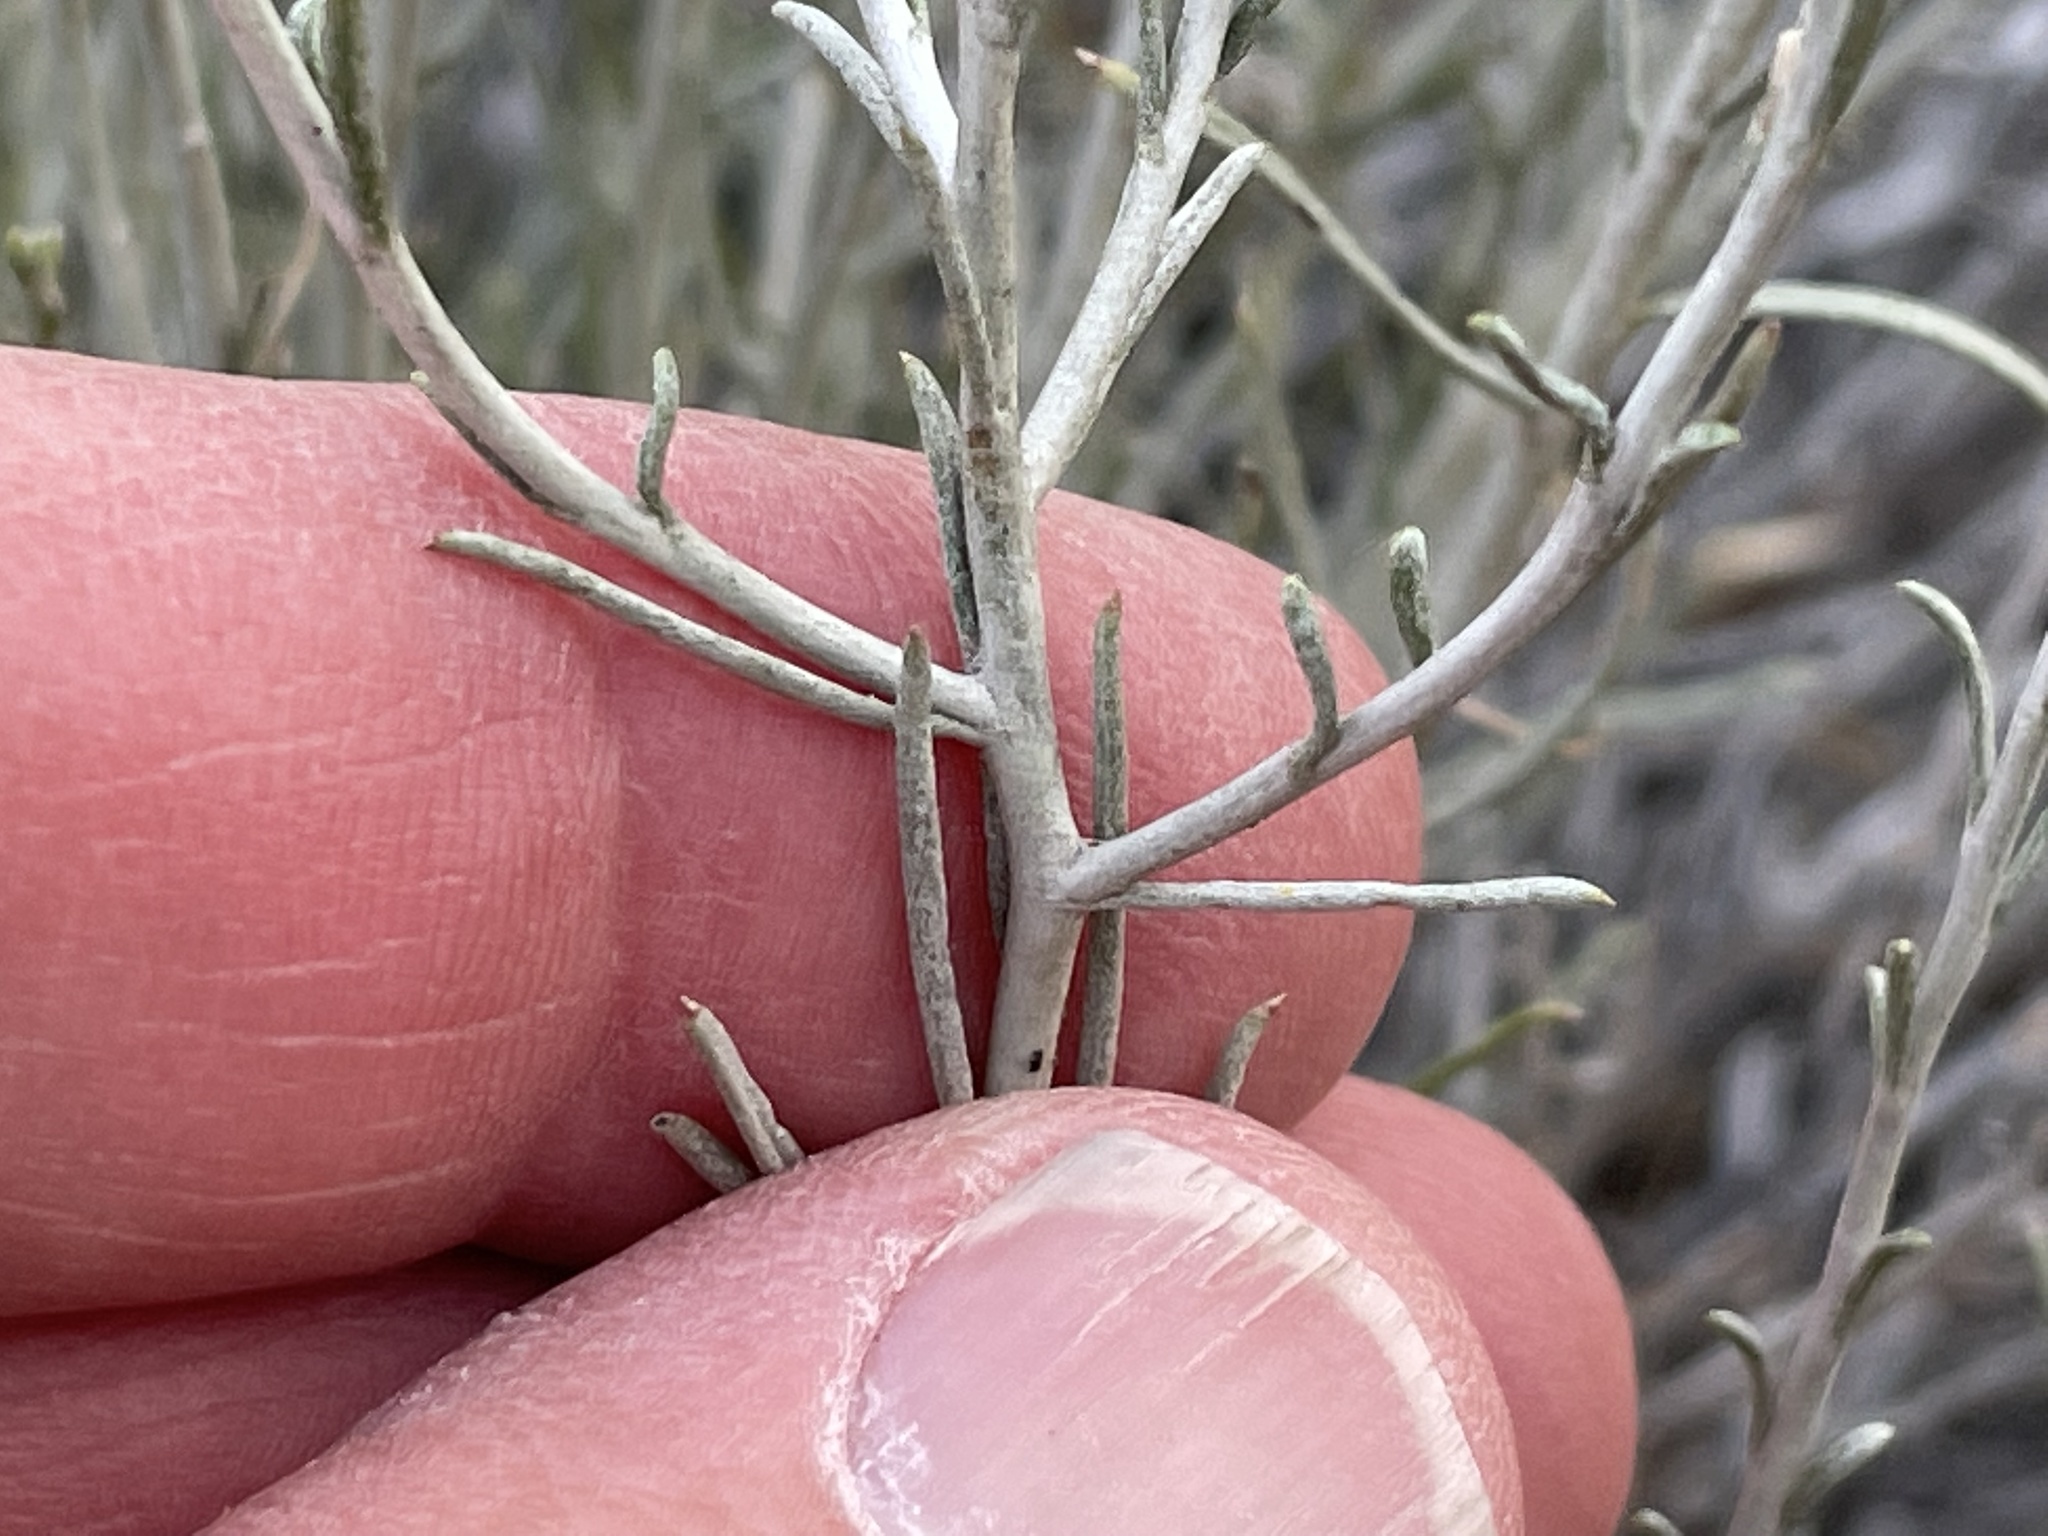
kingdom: Plantae
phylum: Tracheophyta
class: Magnoliopsida
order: Asterales
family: Asteraceae
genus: Ericameria
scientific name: Ericameria nauseosa
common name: Rubber rabbitbrush
